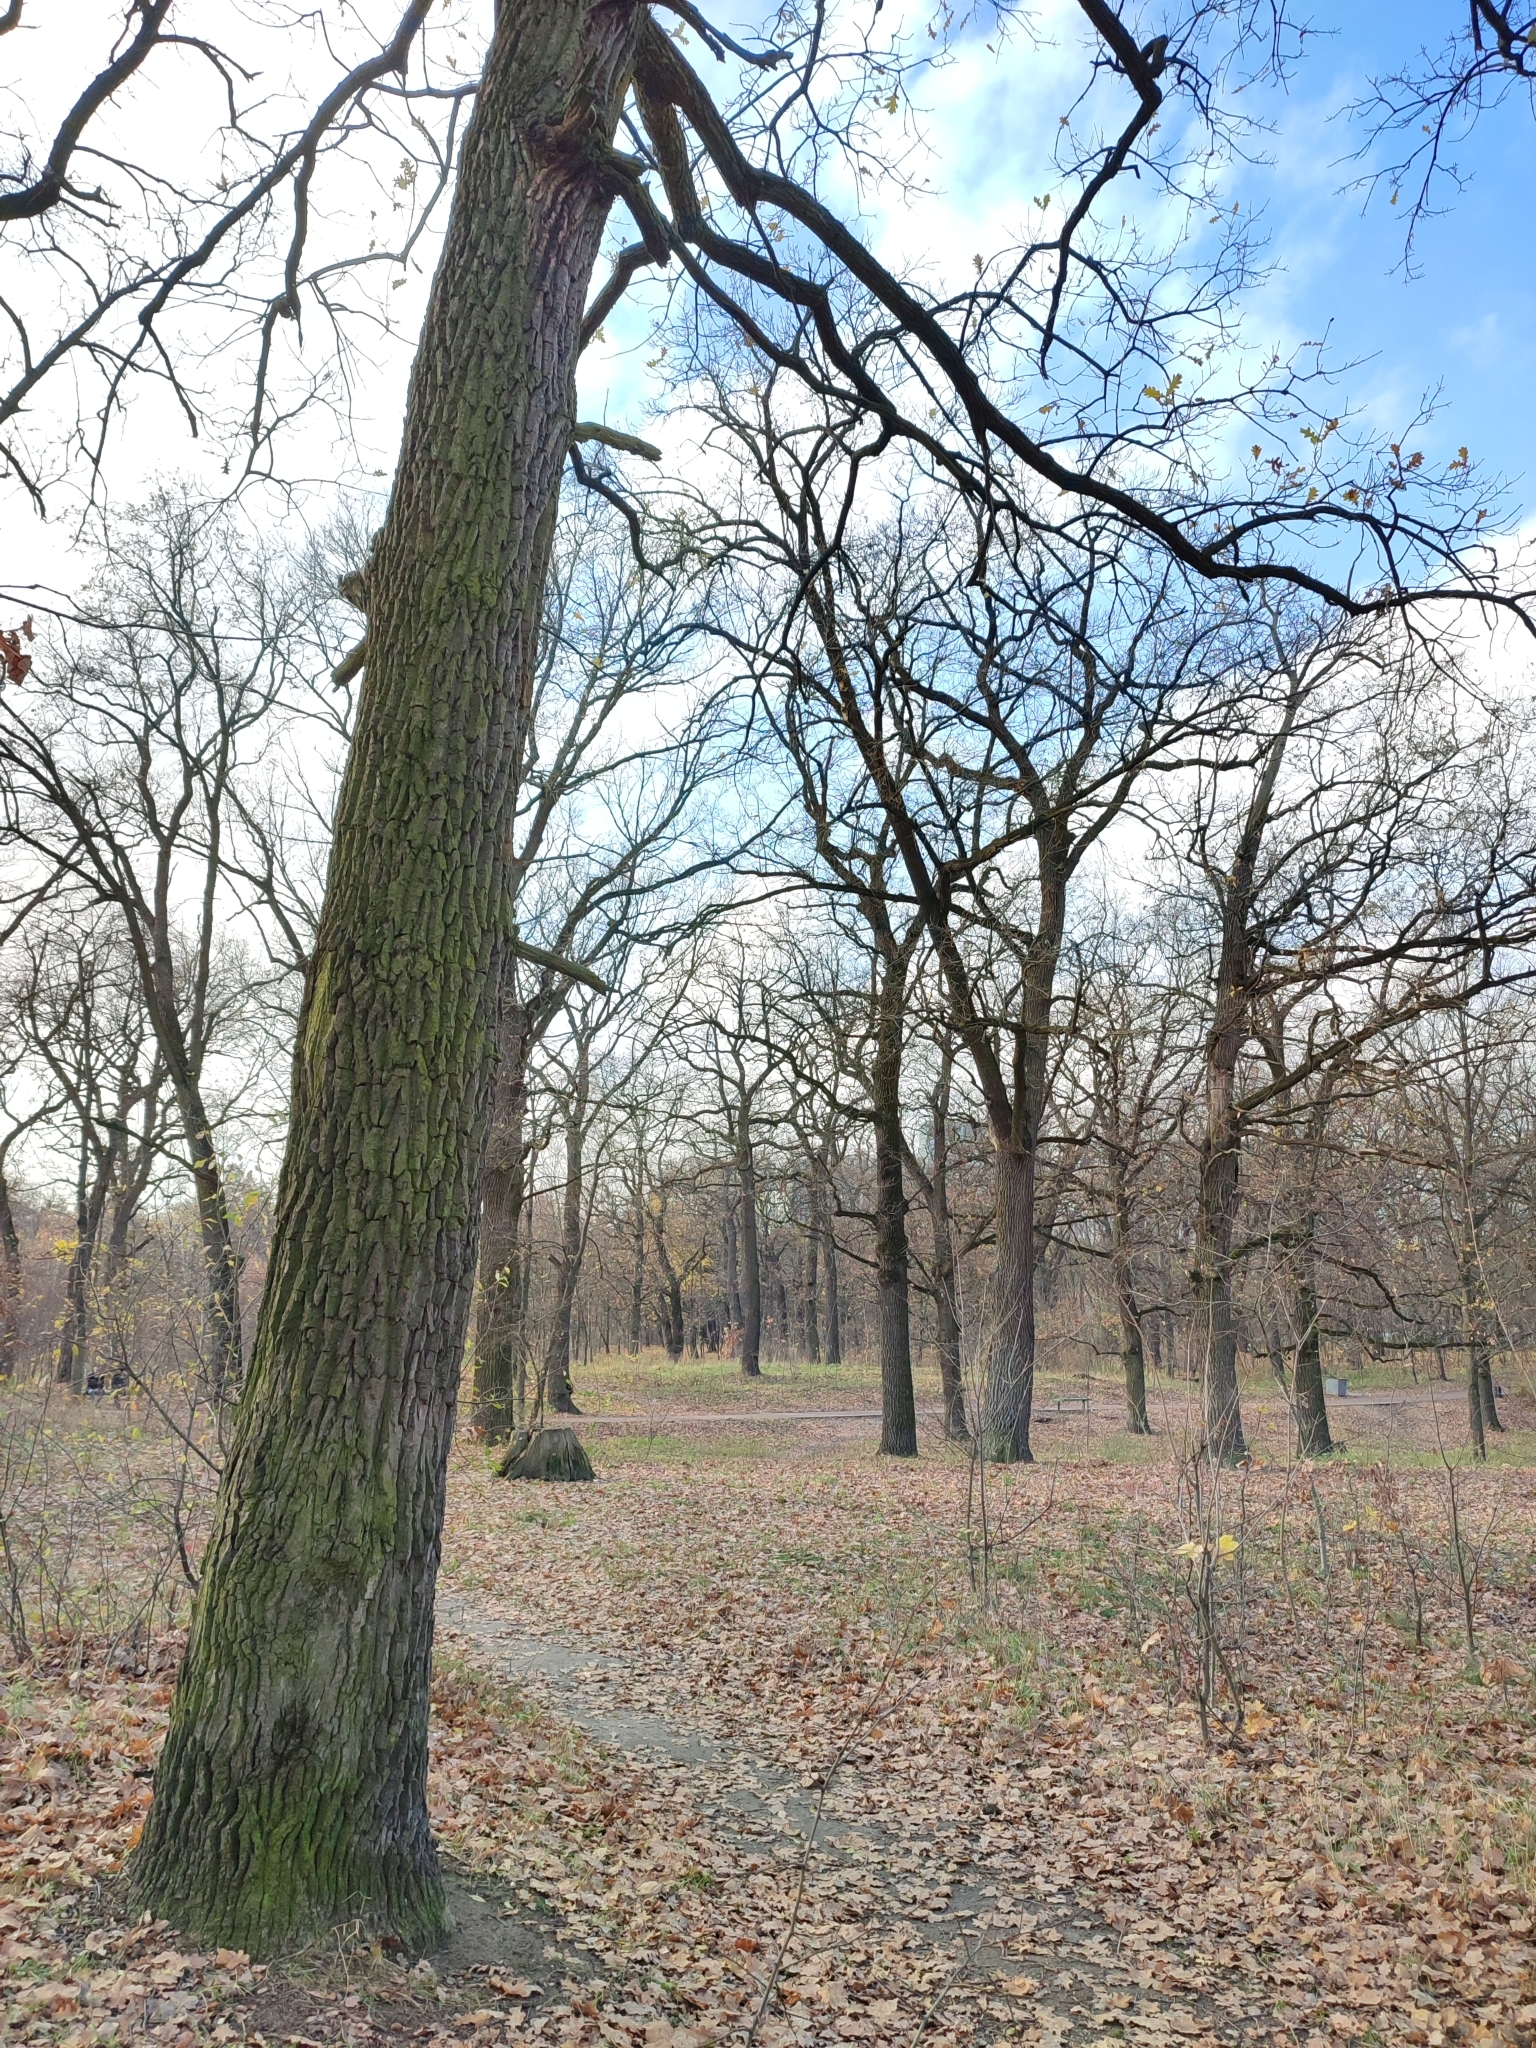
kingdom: Plantae
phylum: Tracheophyta
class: Magnoliopsida
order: Fagales
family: Fagaceae
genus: Quercus
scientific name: Quercus robur
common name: Pedunculate oak
